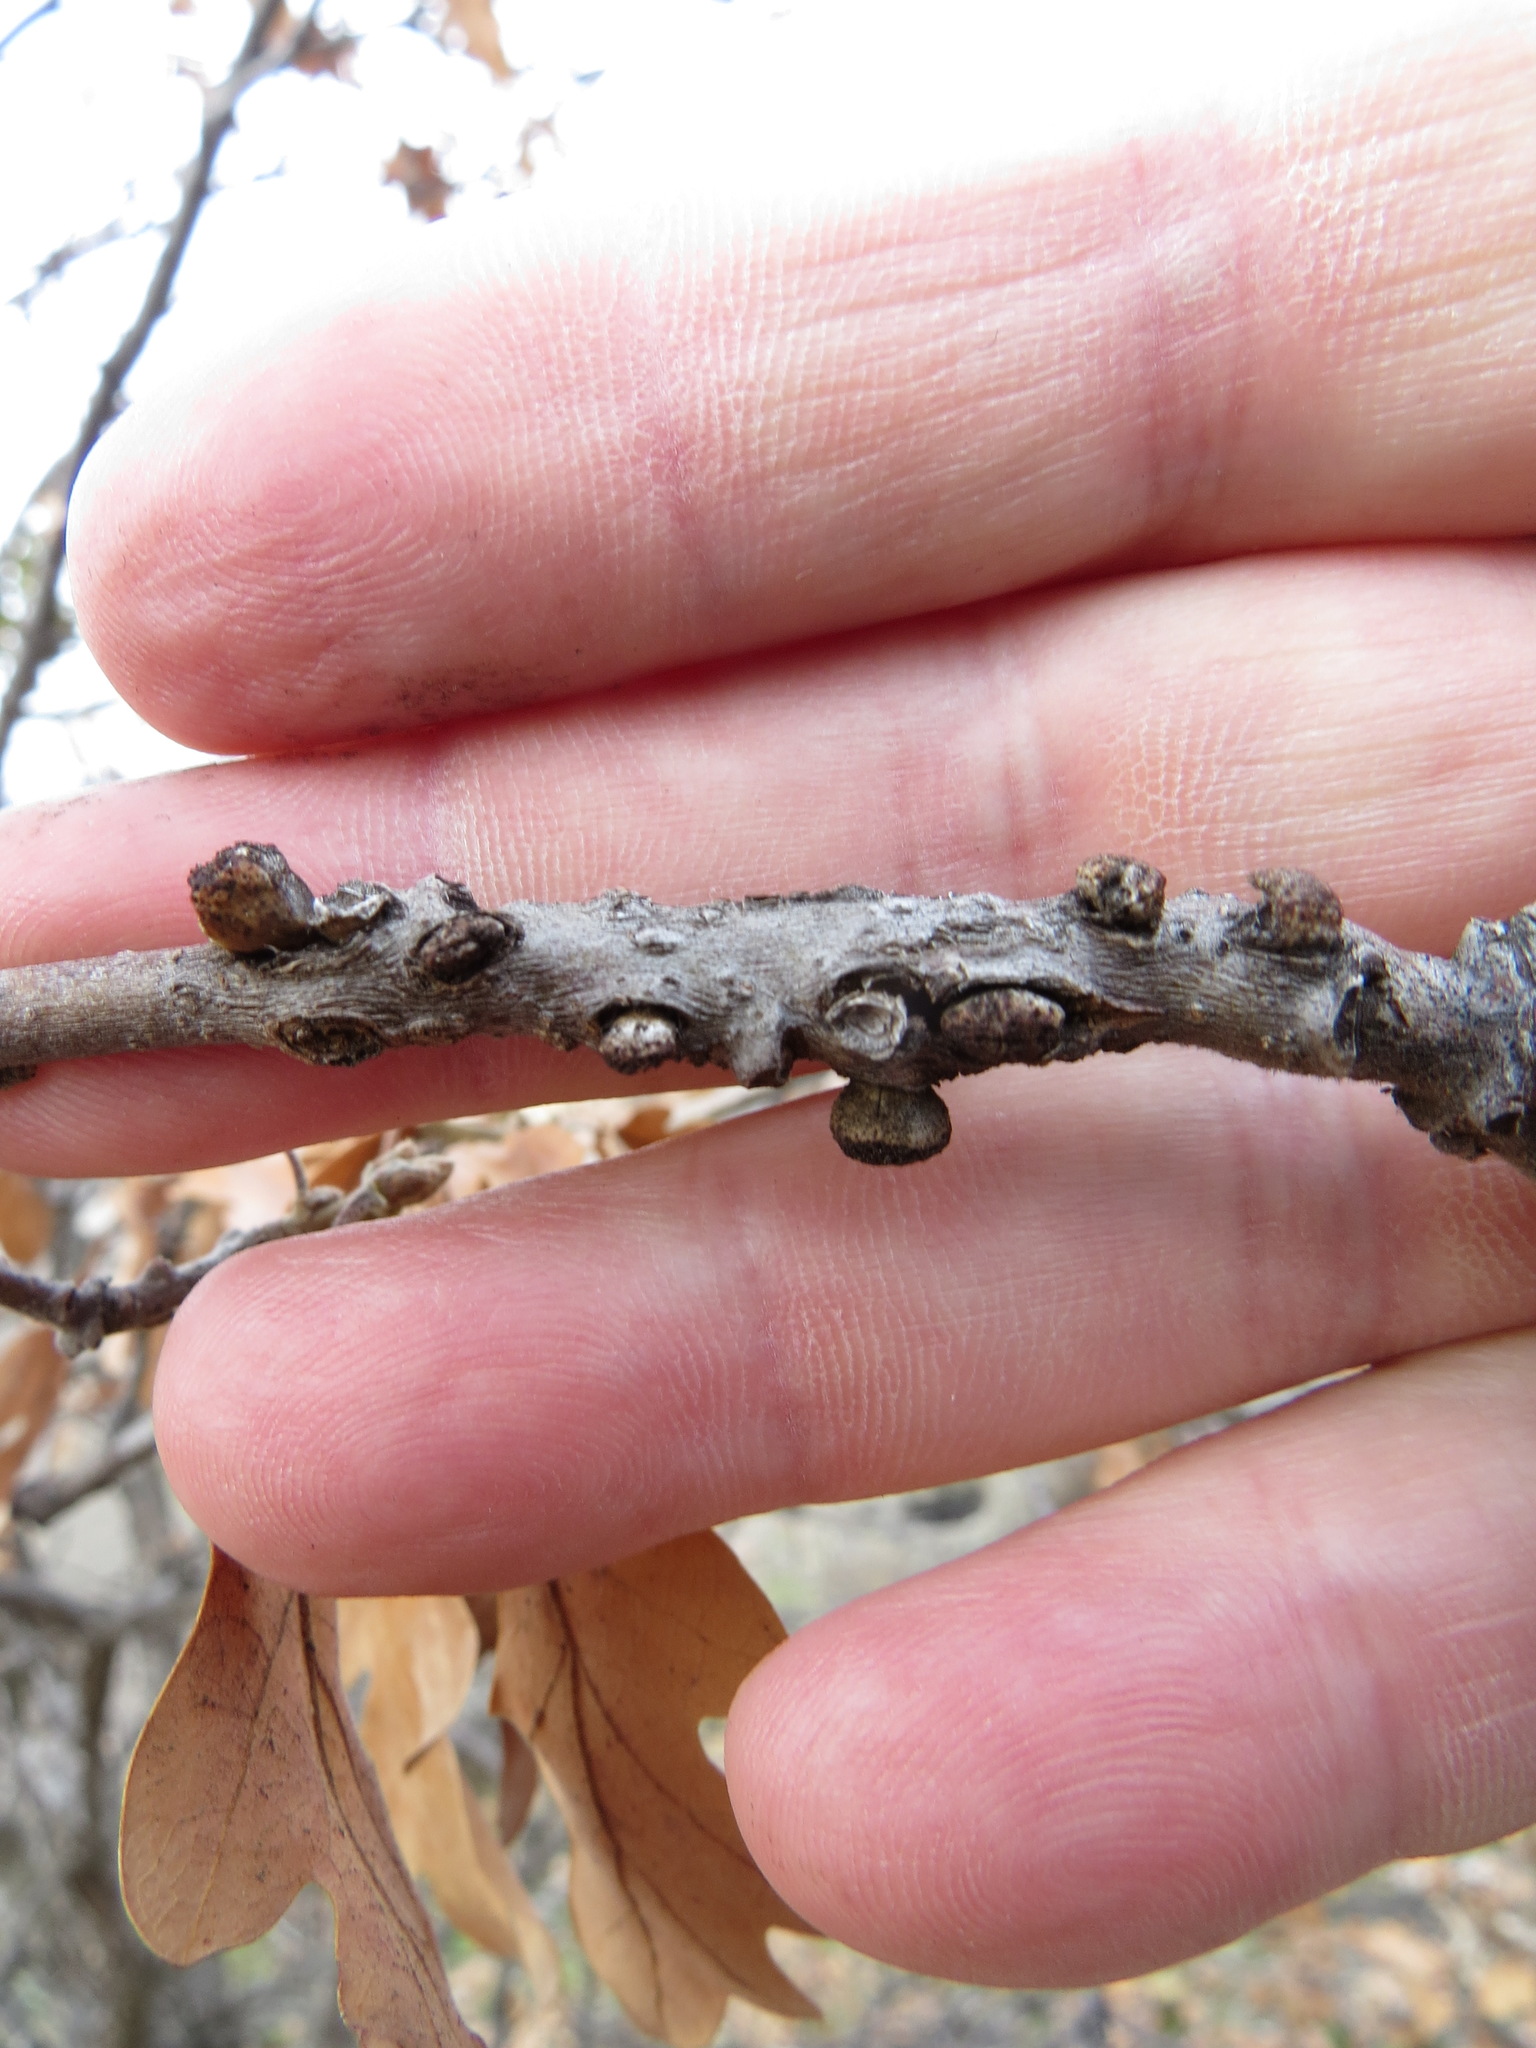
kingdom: Animalia
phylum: Arthropoda
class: Insecta
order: Hymenoptera
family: Cynipidae
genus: Disholcaspis
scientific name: Disholcaspis
